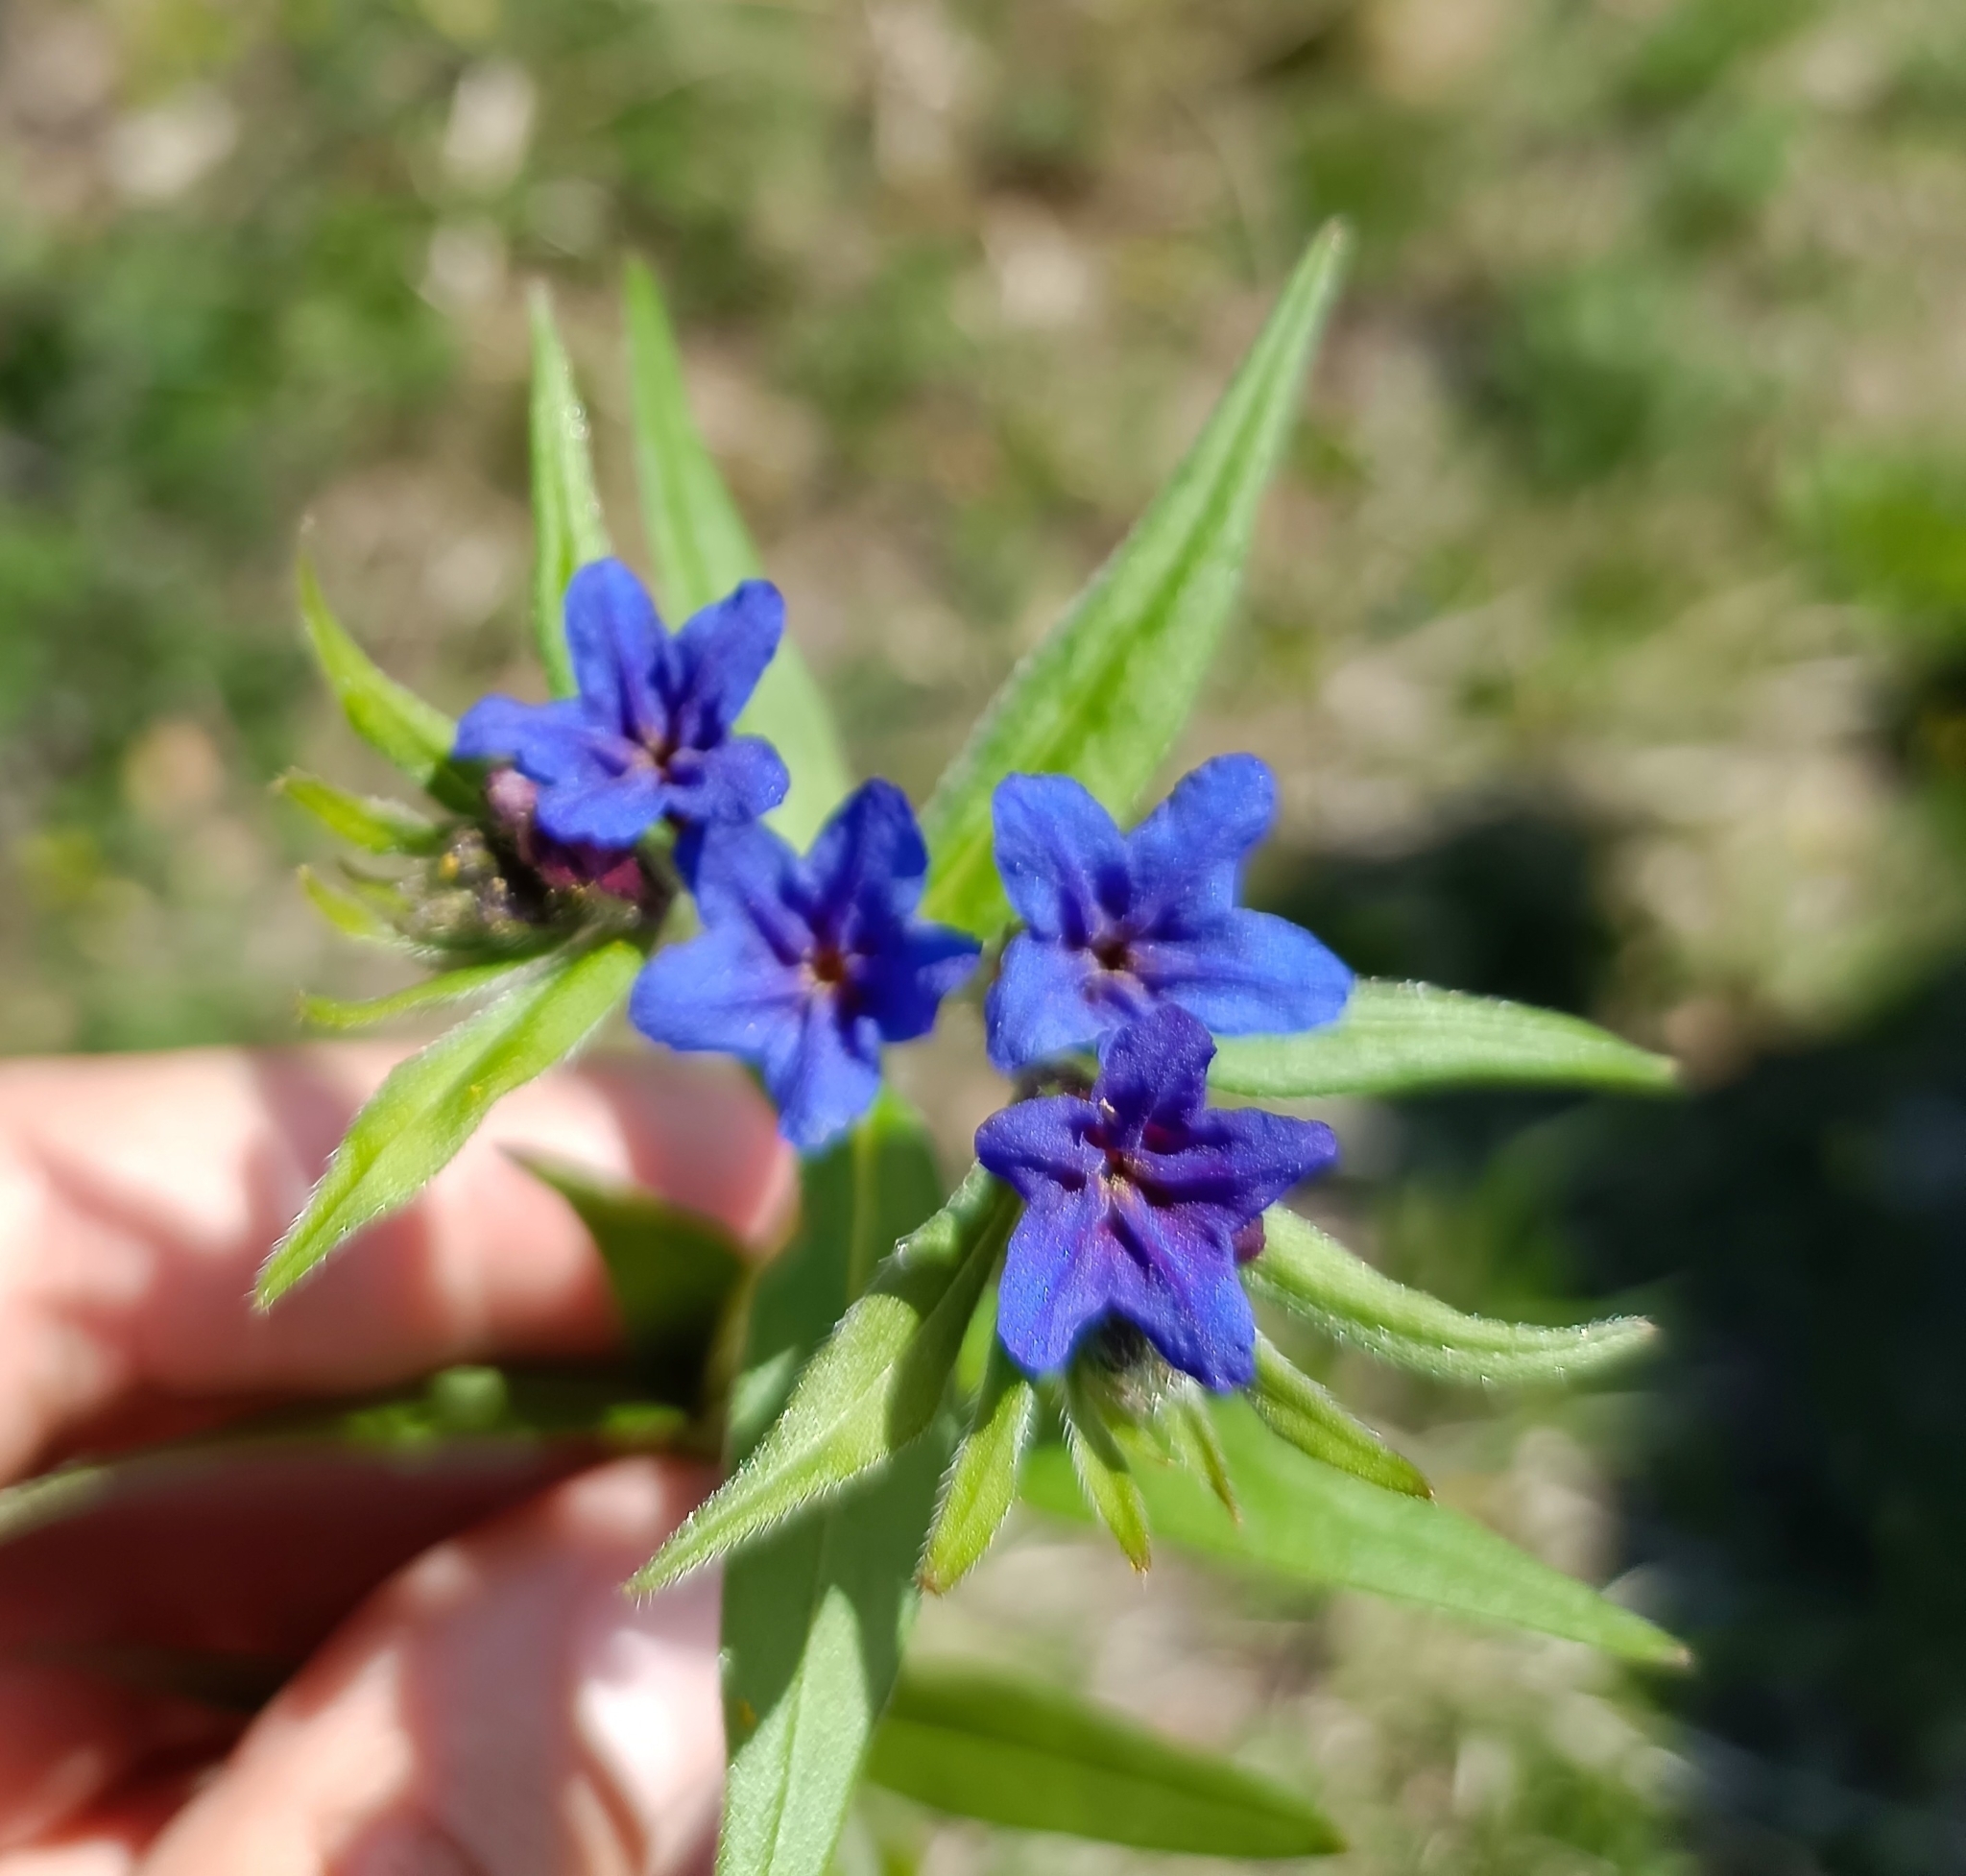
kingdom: Plantae
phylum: Tracheophyta
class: Magnoliopsida
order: Boraginales
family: Boraginaceae
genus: Aegonychon
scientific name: Aegonychon purpurocaeruleum
